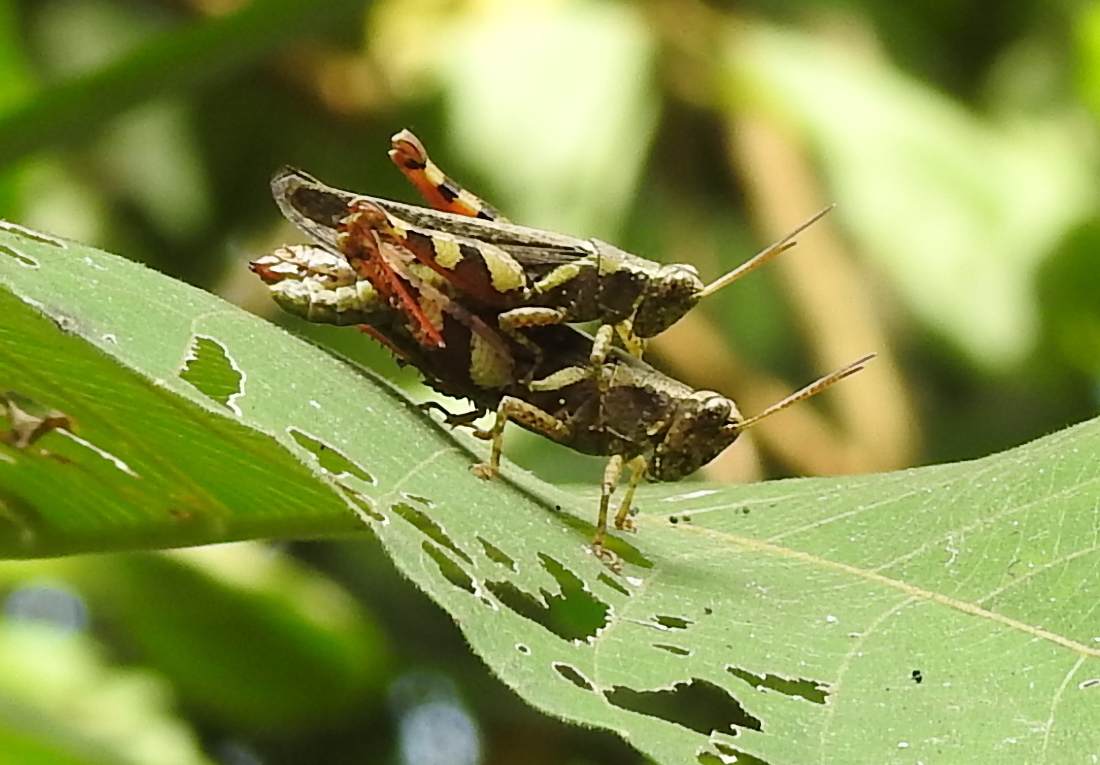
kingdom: Animalia
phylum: Arthropoda
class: Insecta
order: Orthoptera
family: Acrididae
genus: Xenocatantops
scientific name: Xenocatantops humile
